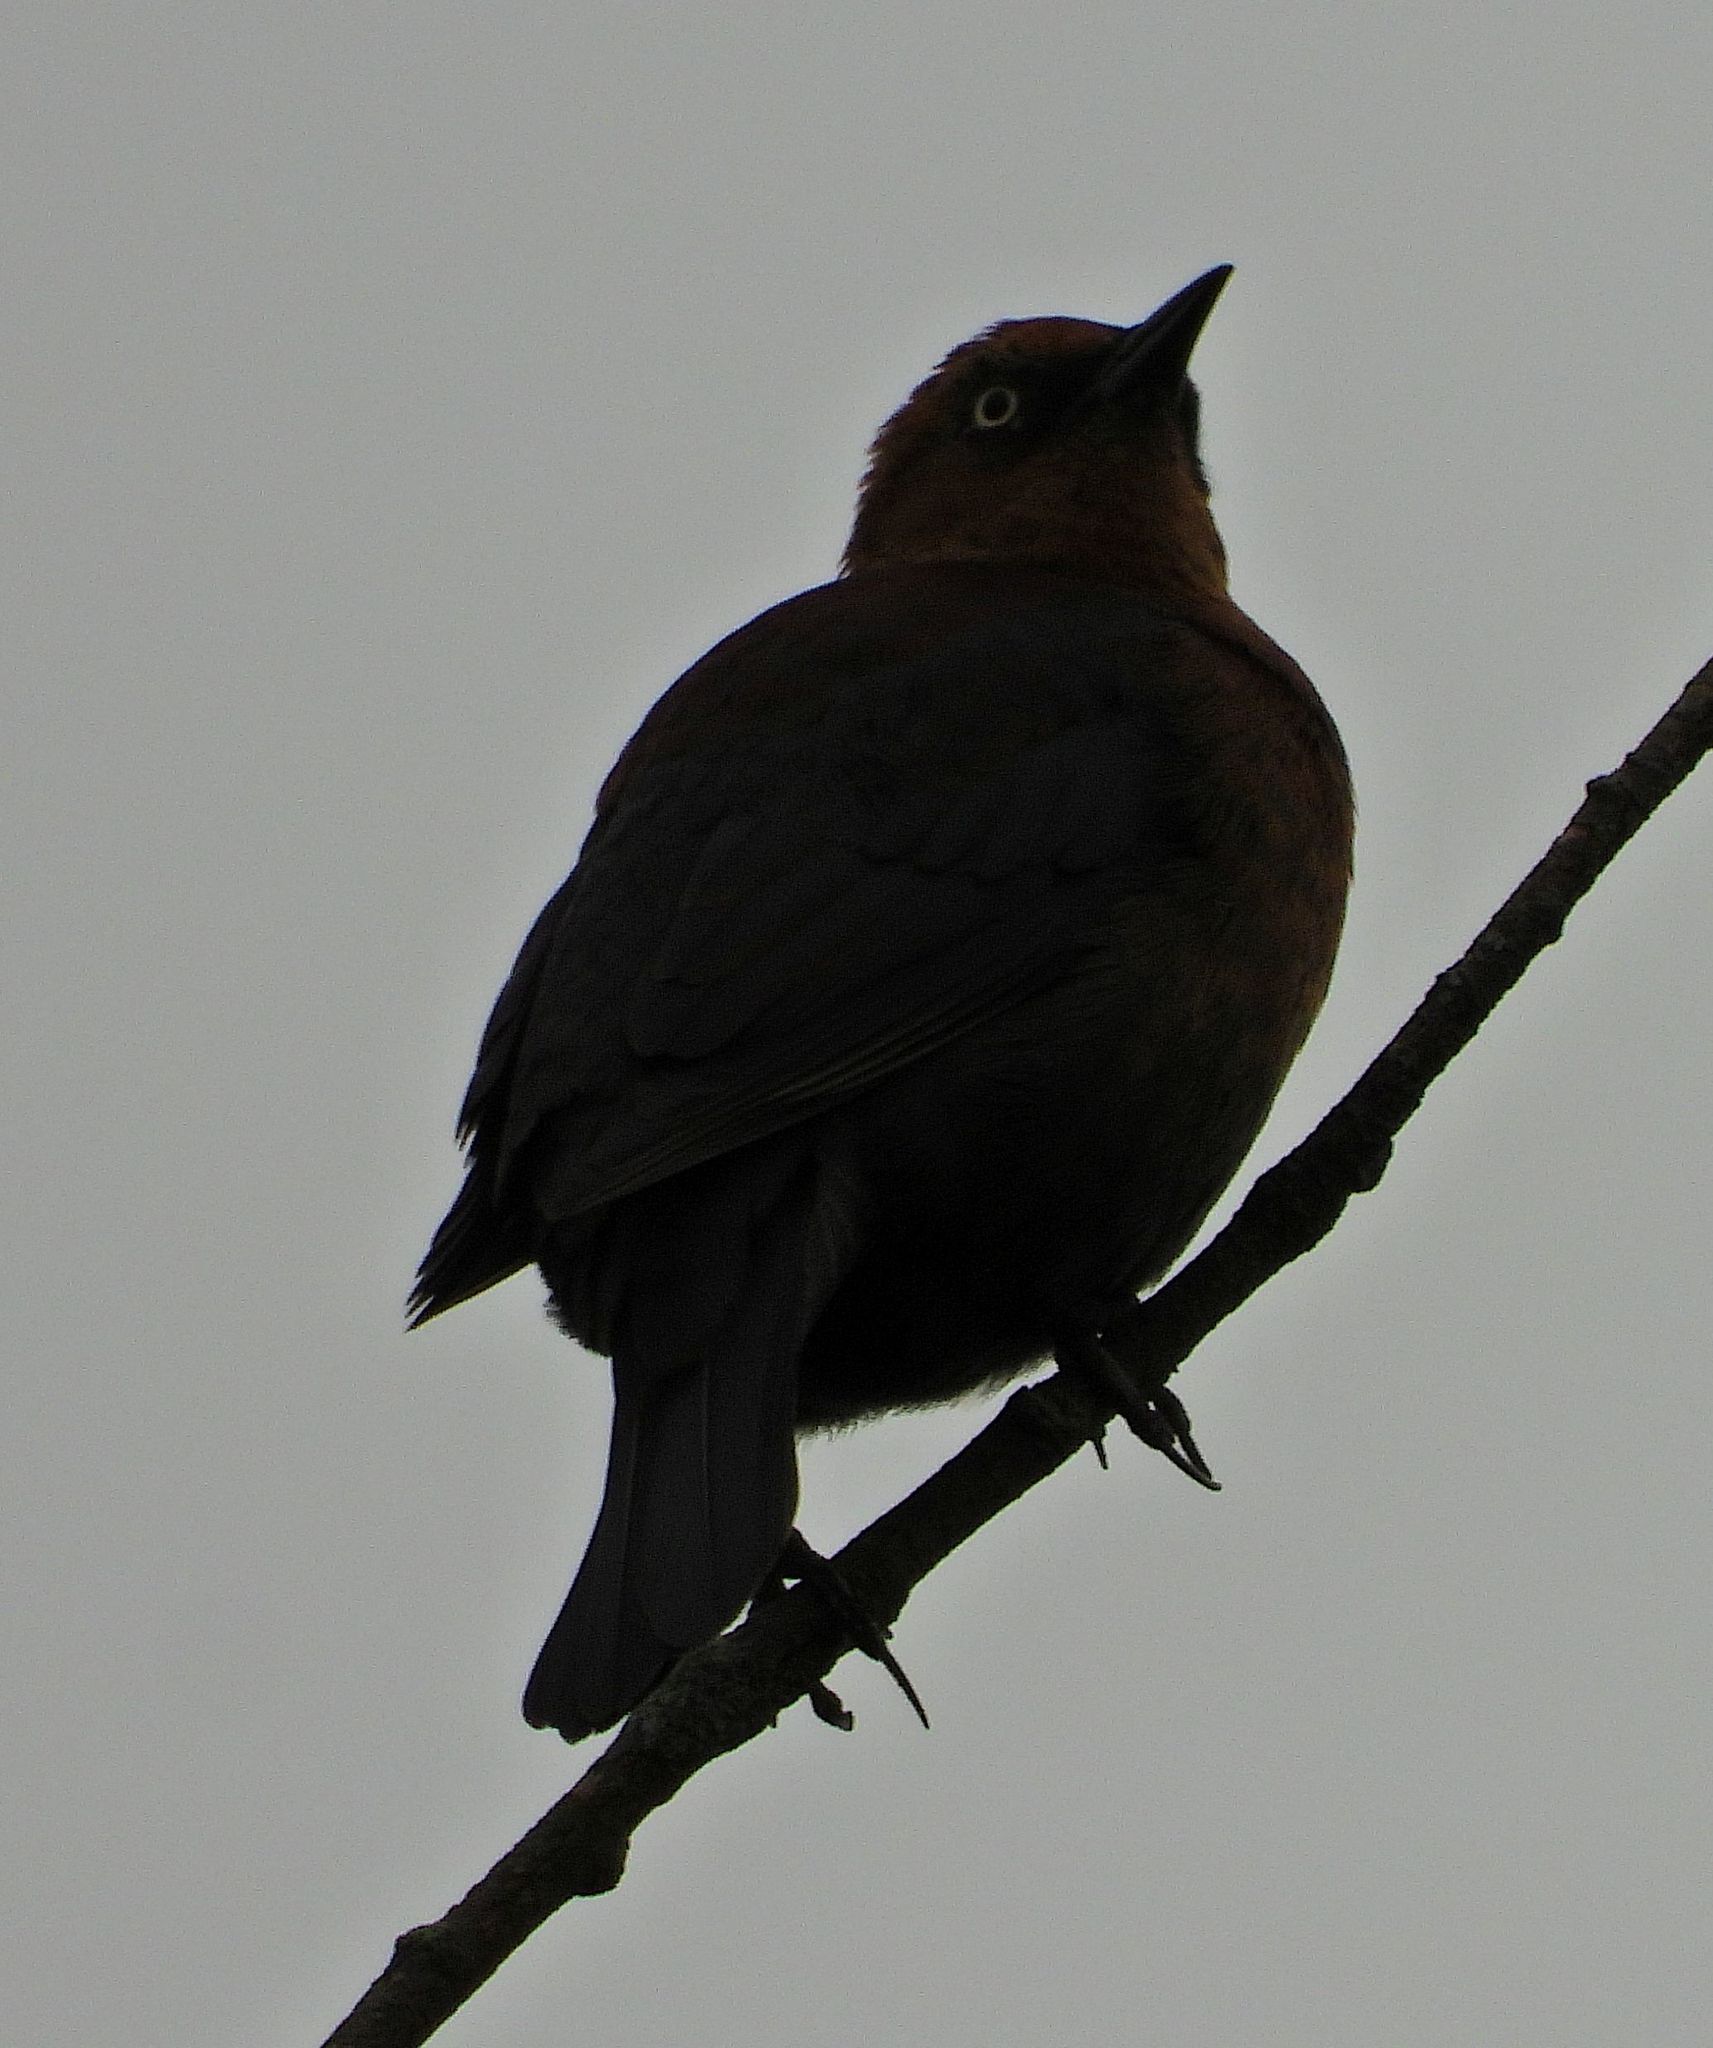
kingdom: Animalia
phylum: Chordata
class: Aves
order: Passeriformes
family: Icteridae
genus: Euphagus
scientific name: Euphagus carolinus
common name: Rusty blackbird
